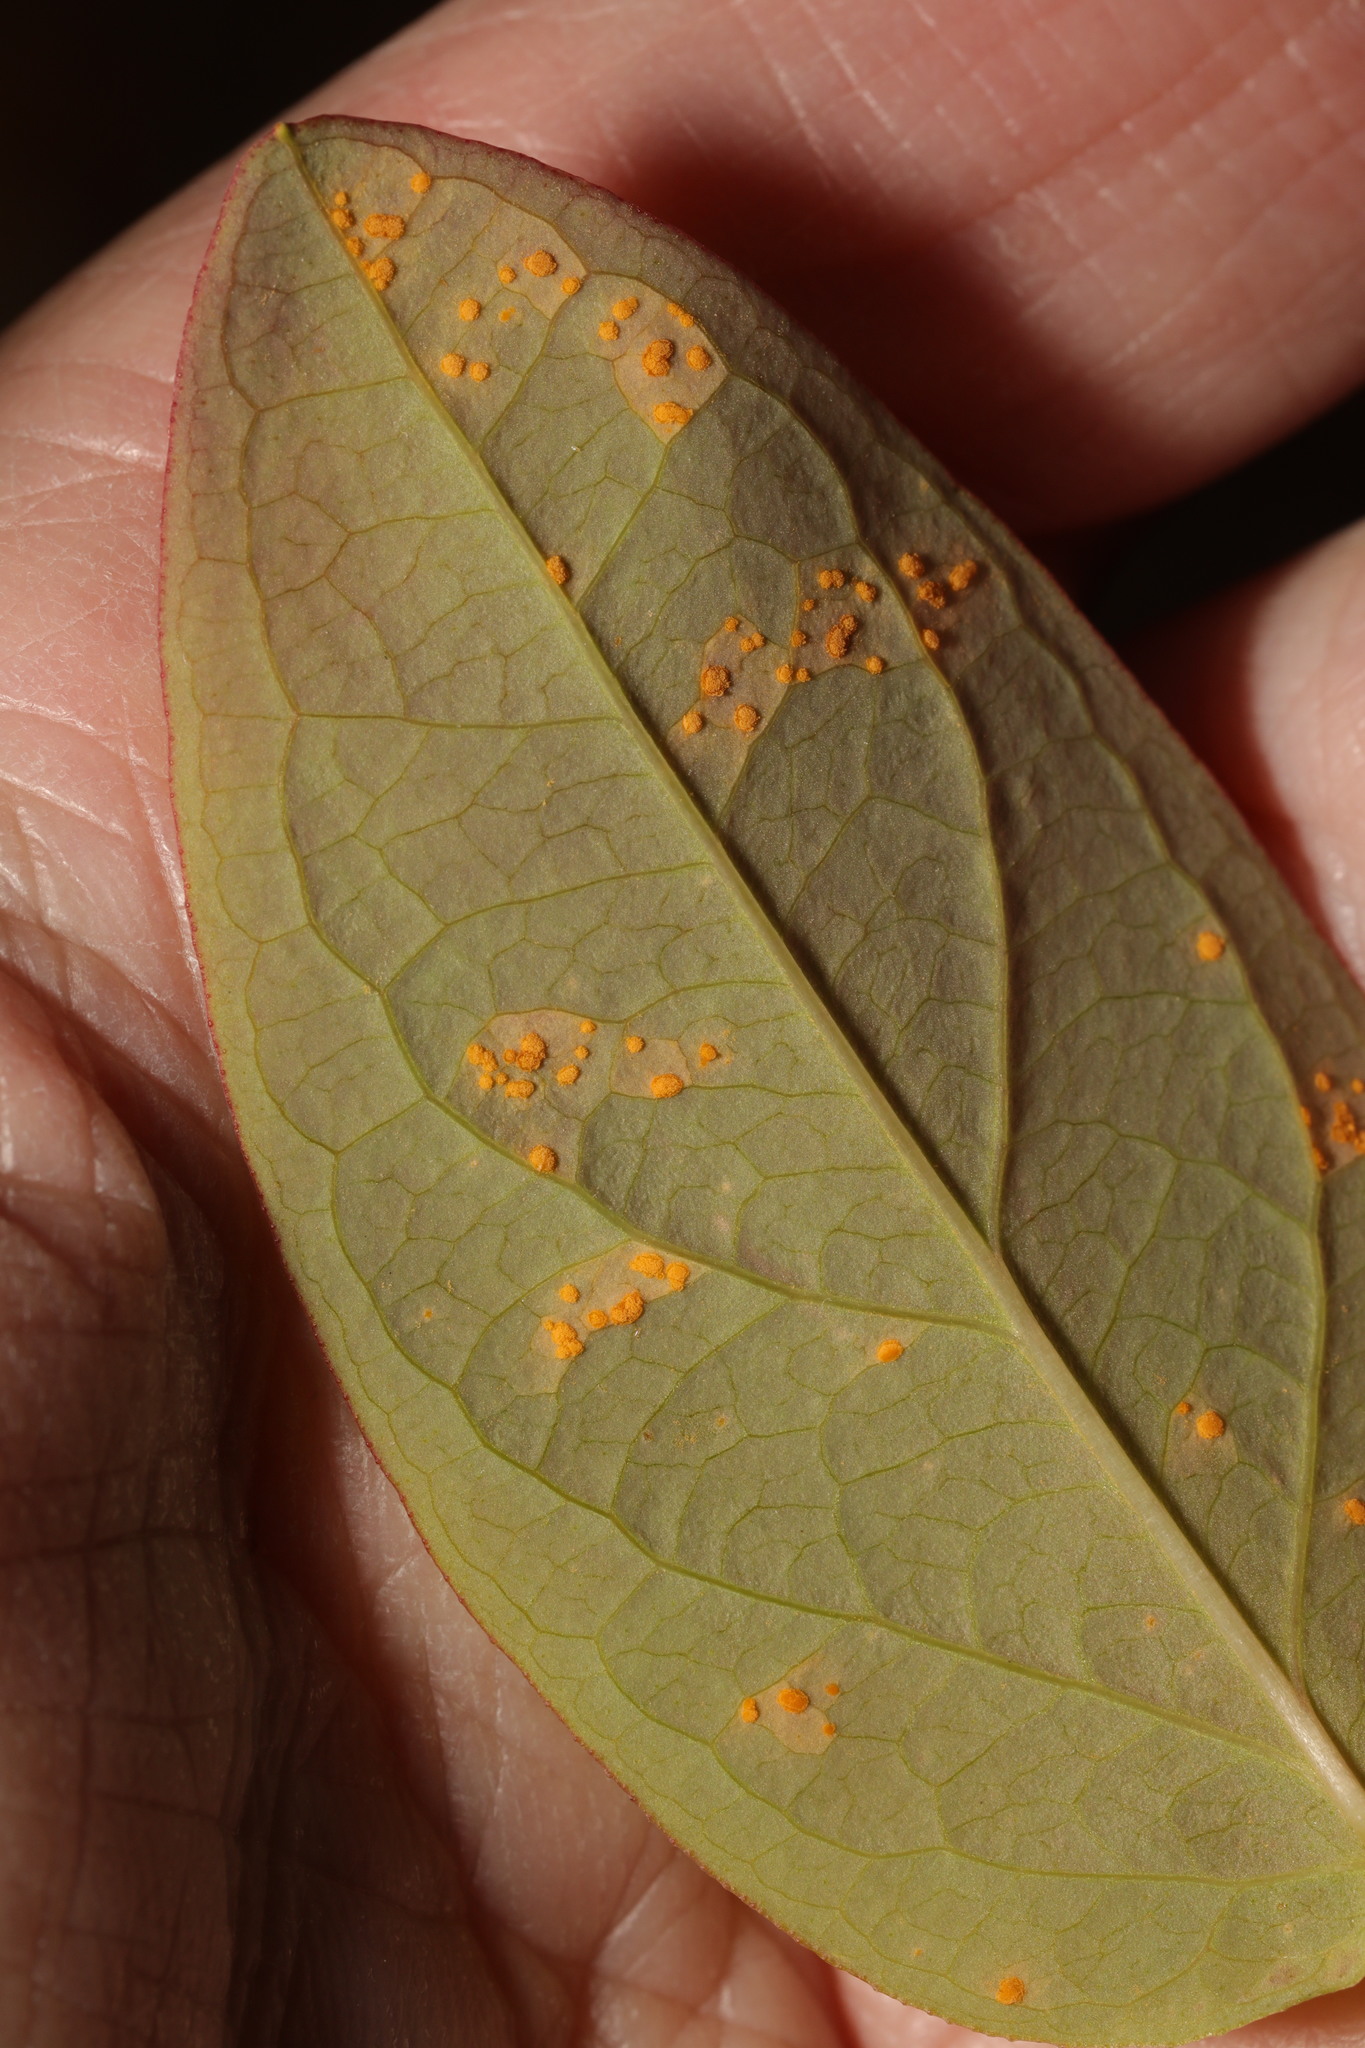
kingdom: Fungi
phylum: Basidiomycota
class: Pucciniomycetes
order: Pucciniales
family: Melampsoraceae
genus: Melampsora
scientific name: Melampsora
